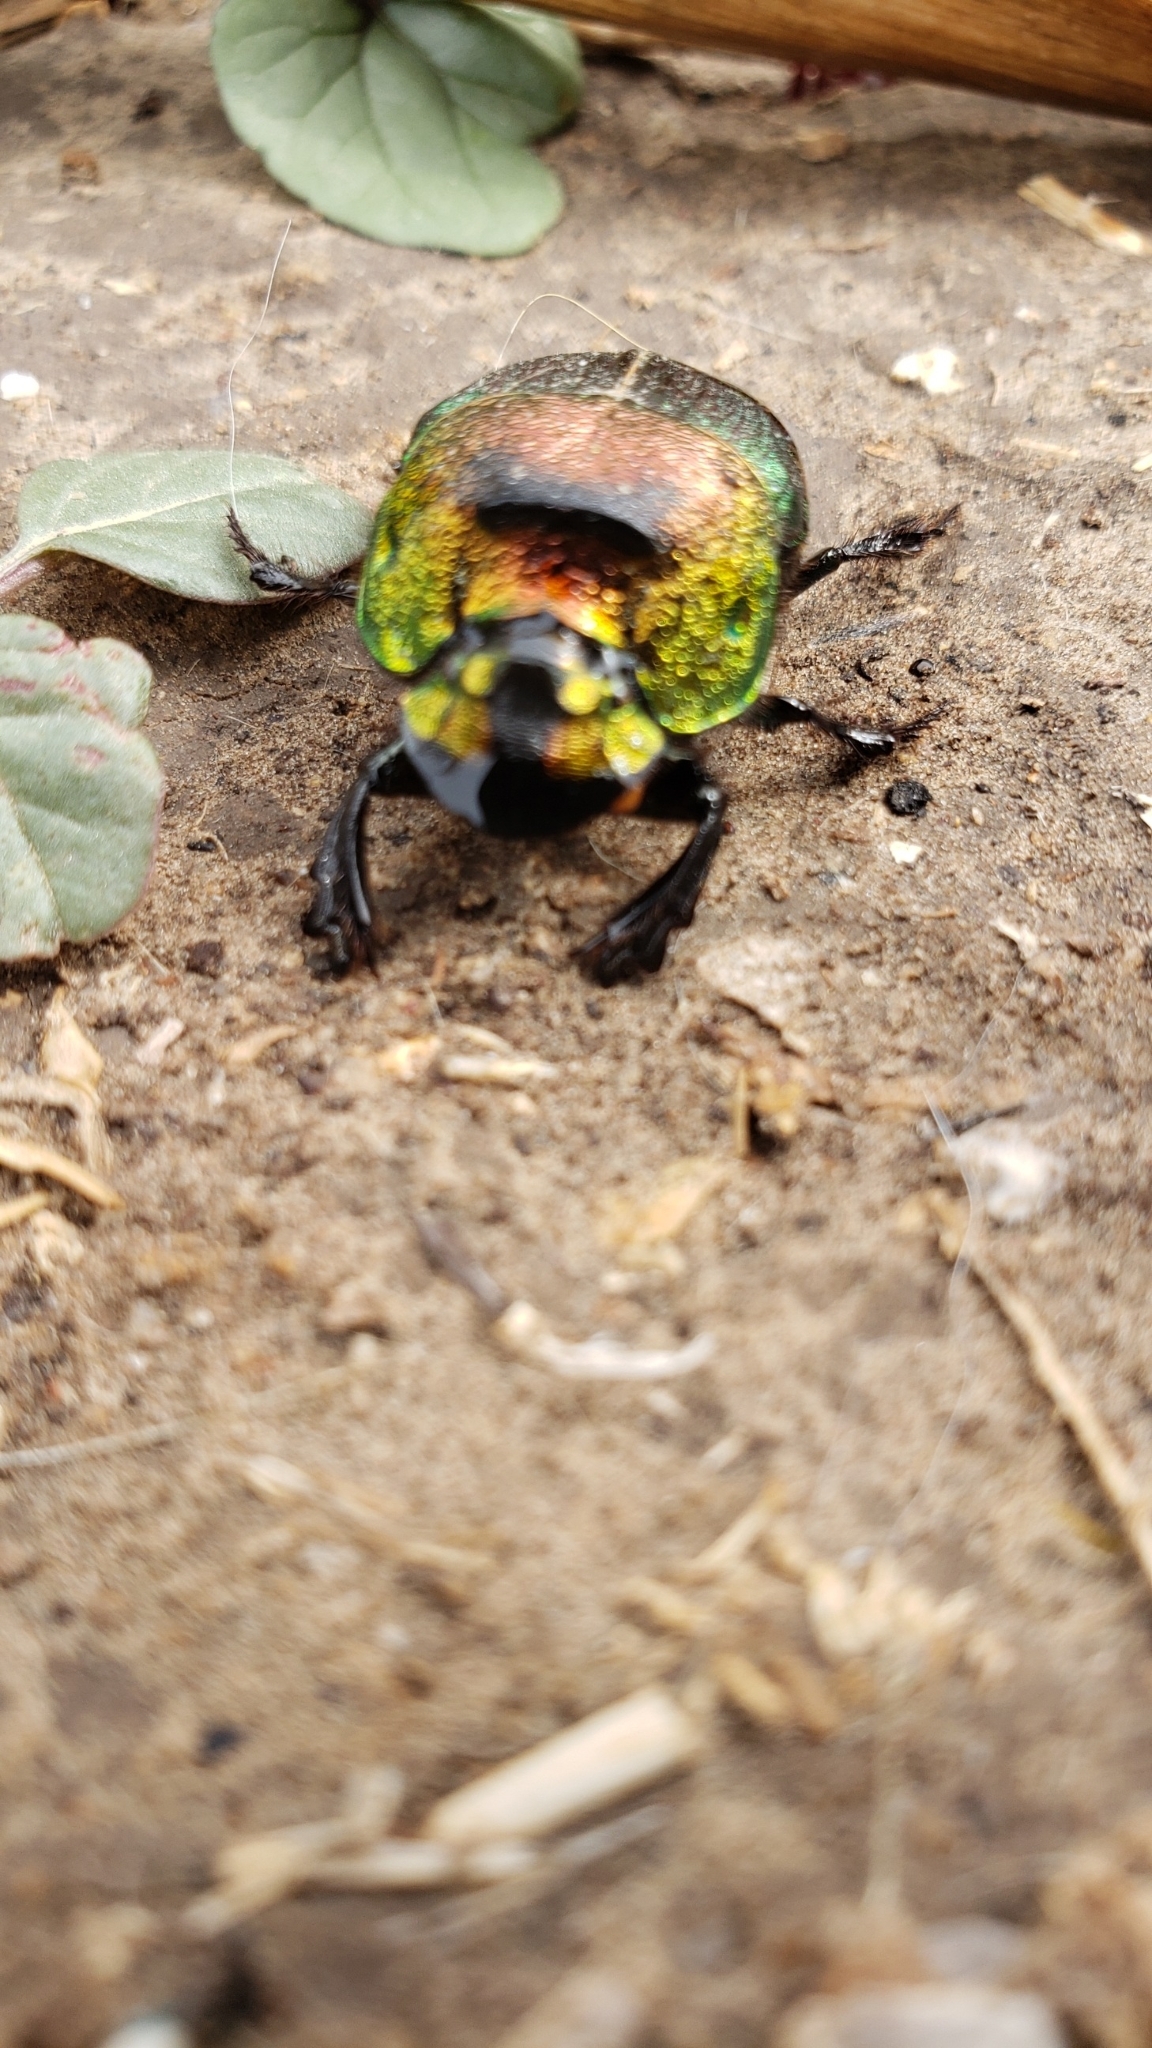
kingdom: Animalia
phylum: Arthropoda
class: Insecta
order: Coleoptera
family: Scarabaeidae
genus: Phanaeus
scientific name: Phanaeus vindex
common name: Rainbow scarab
